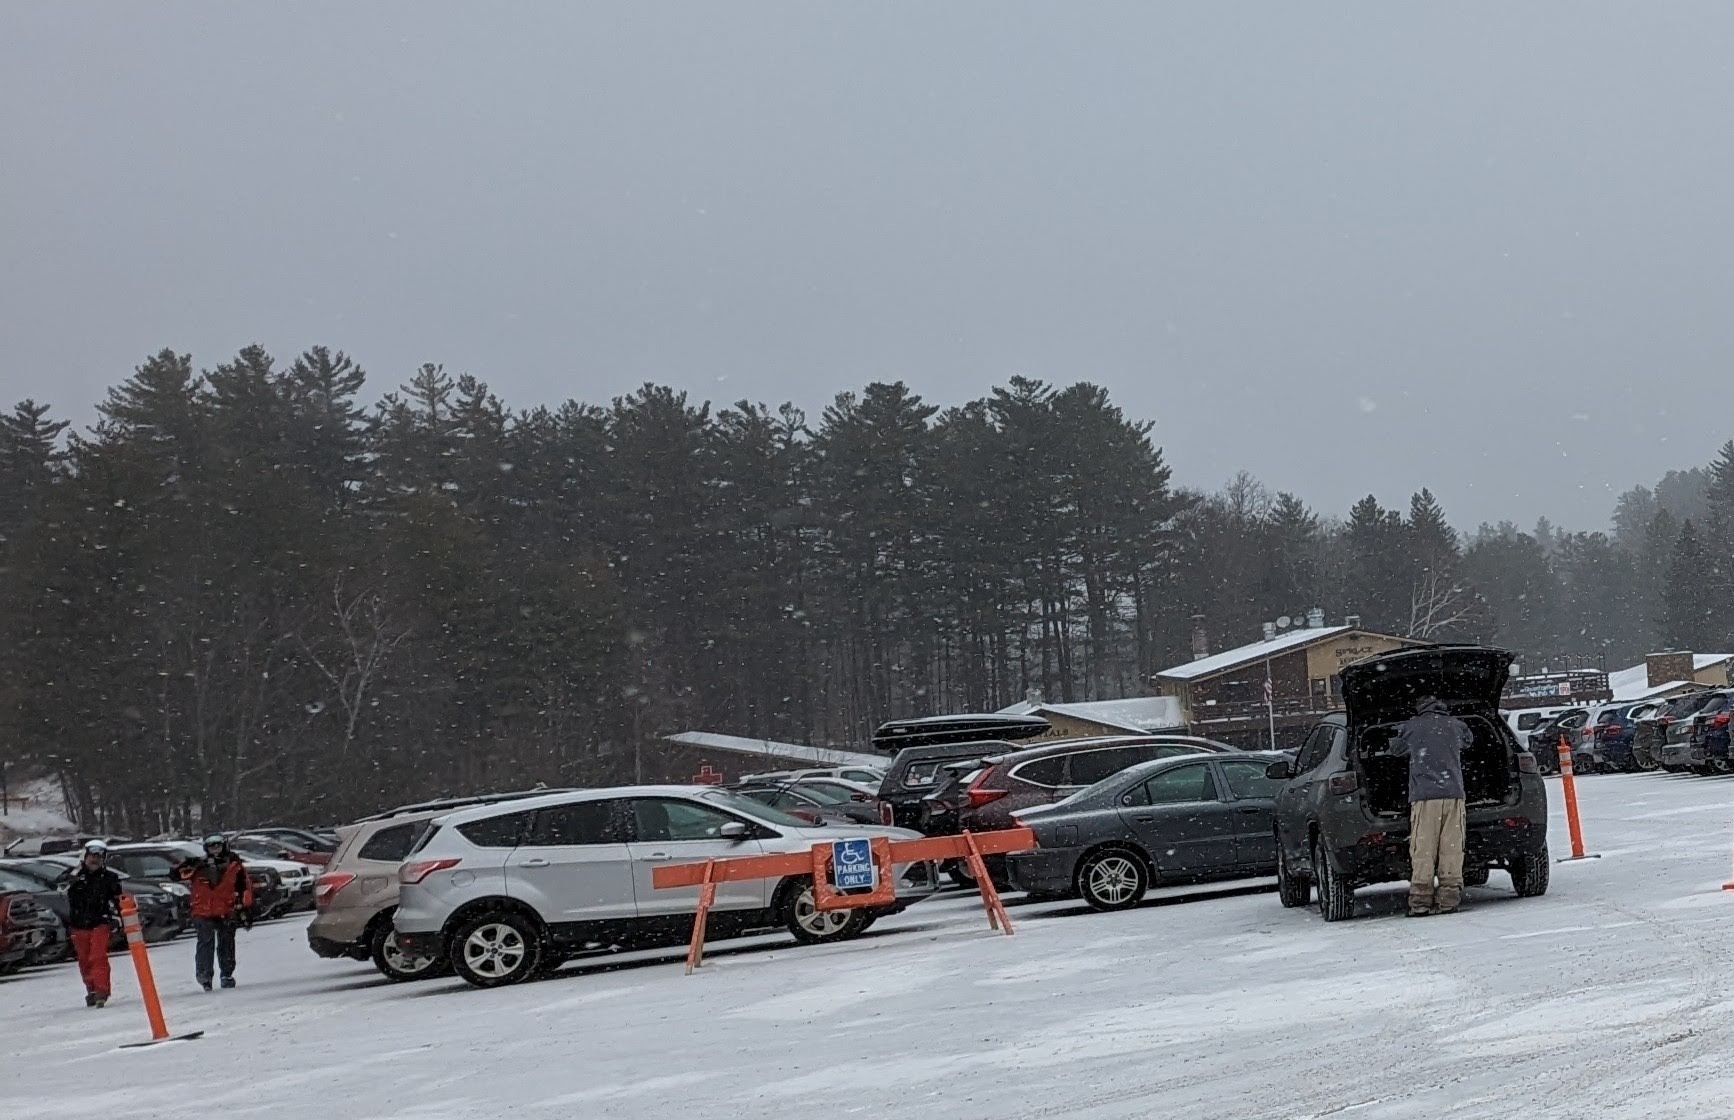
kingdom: Plantae
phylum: Tracheophyta
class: Pinopsida
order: Pinales
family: Pinaceae
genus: Pinus
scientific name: Pinus strobus
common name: Weymouth pine
